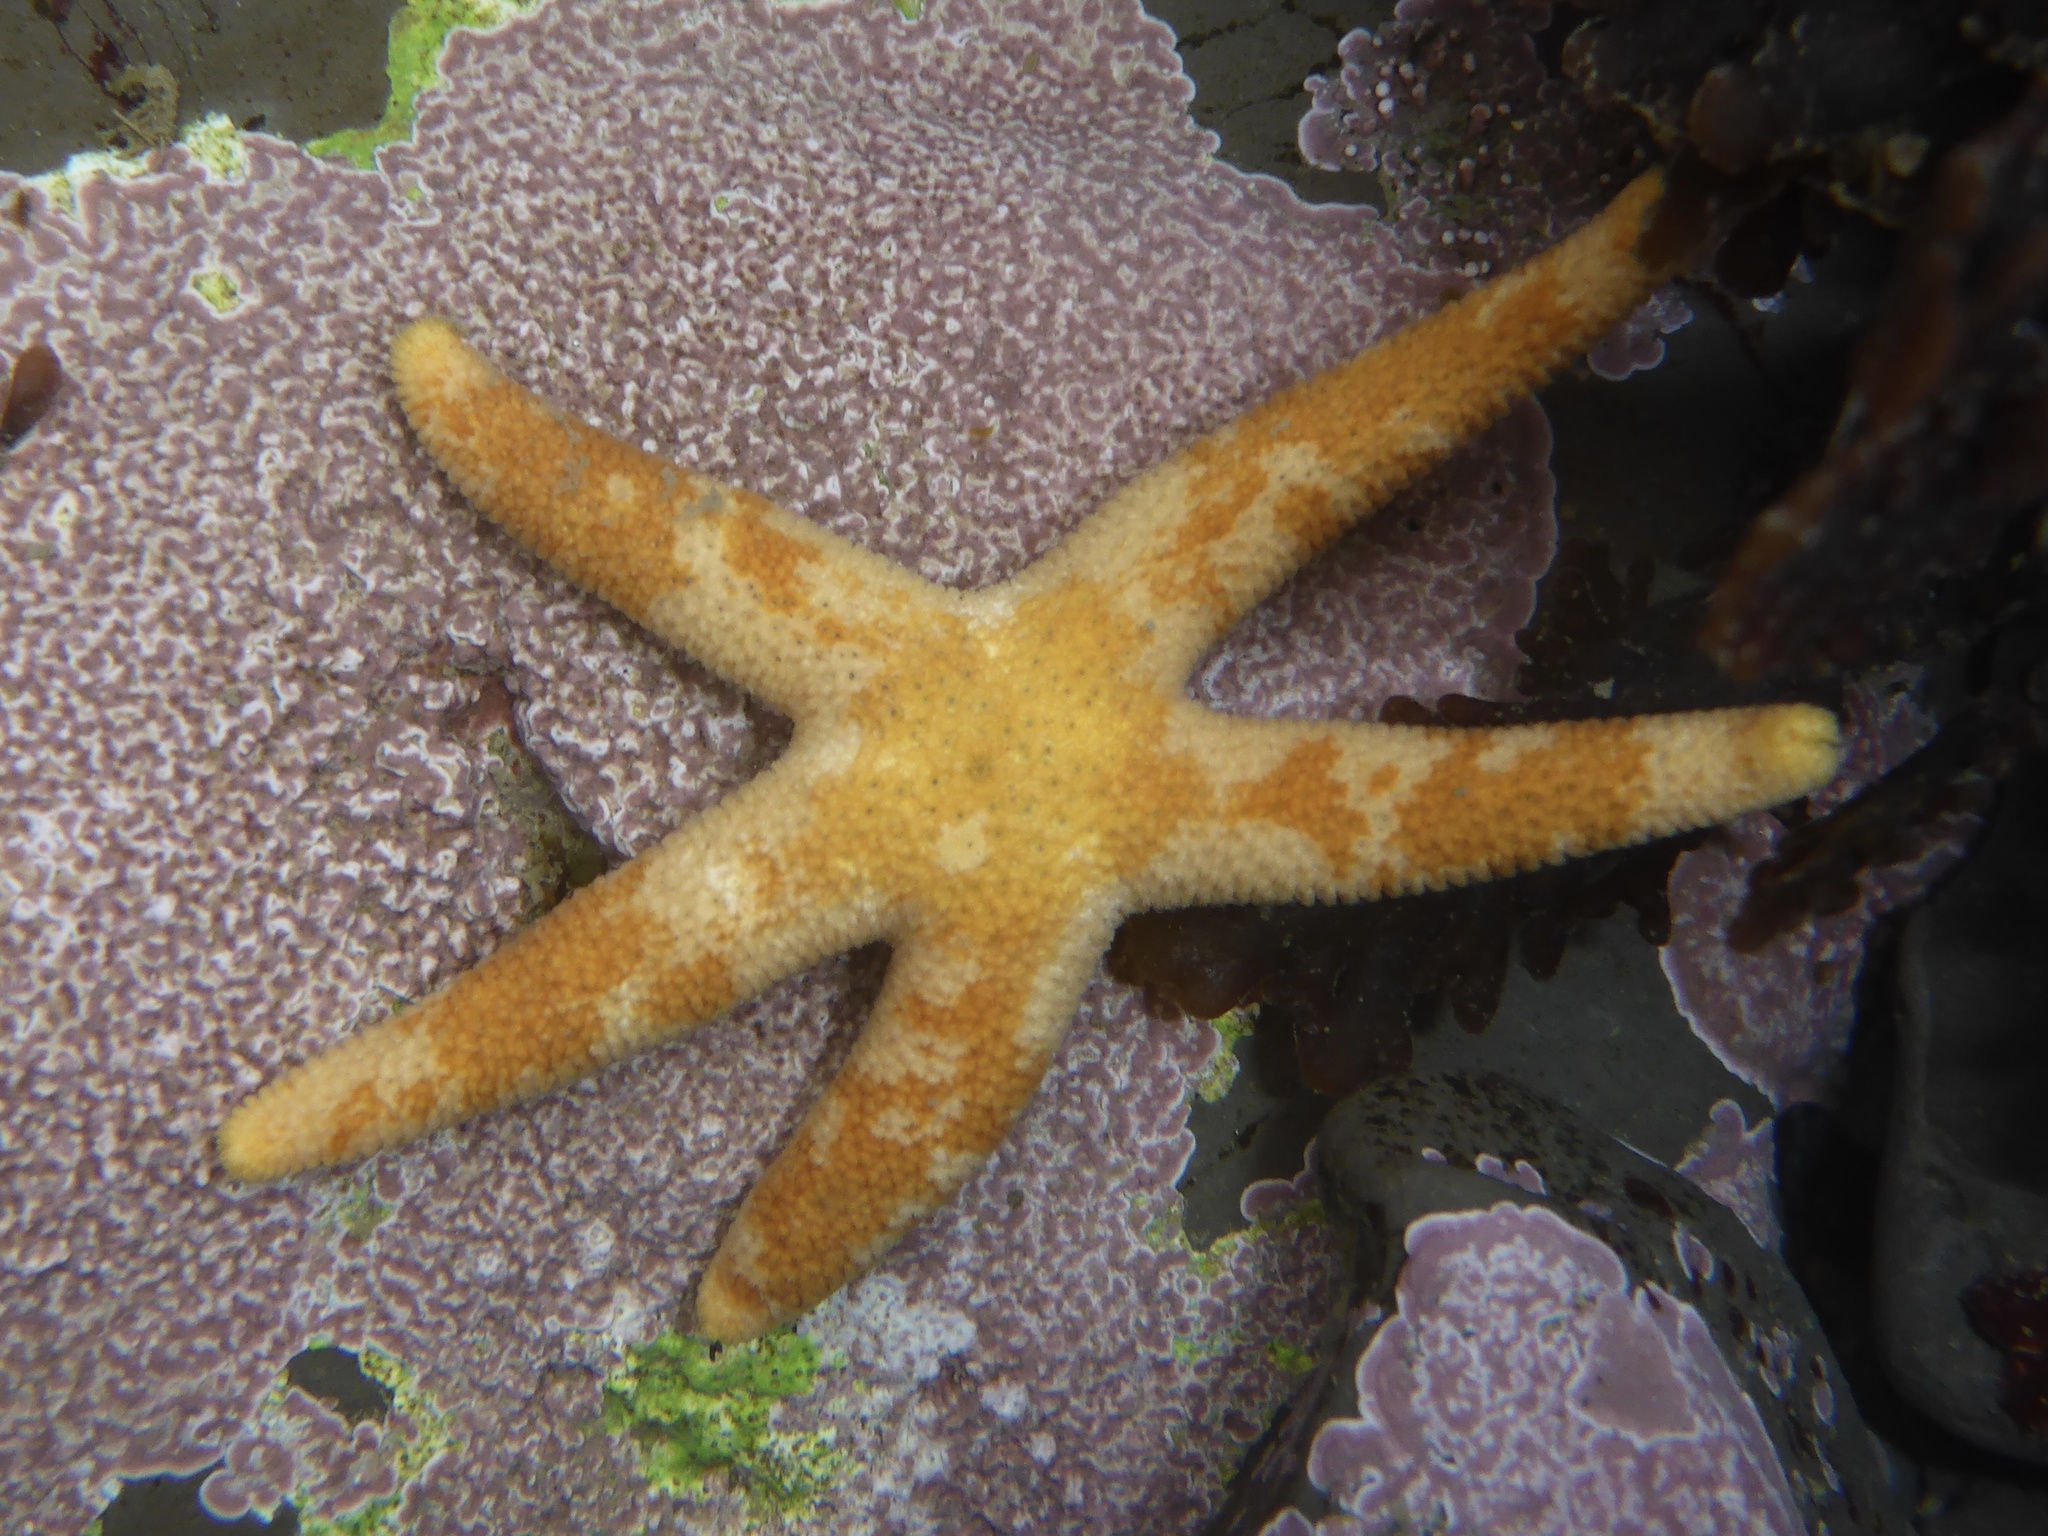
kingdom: Animalia
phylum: Echinodermata
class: Asteroidea
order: Spinulosida
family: Echinasteridae
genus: Henricia
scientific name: Henricia pumila
